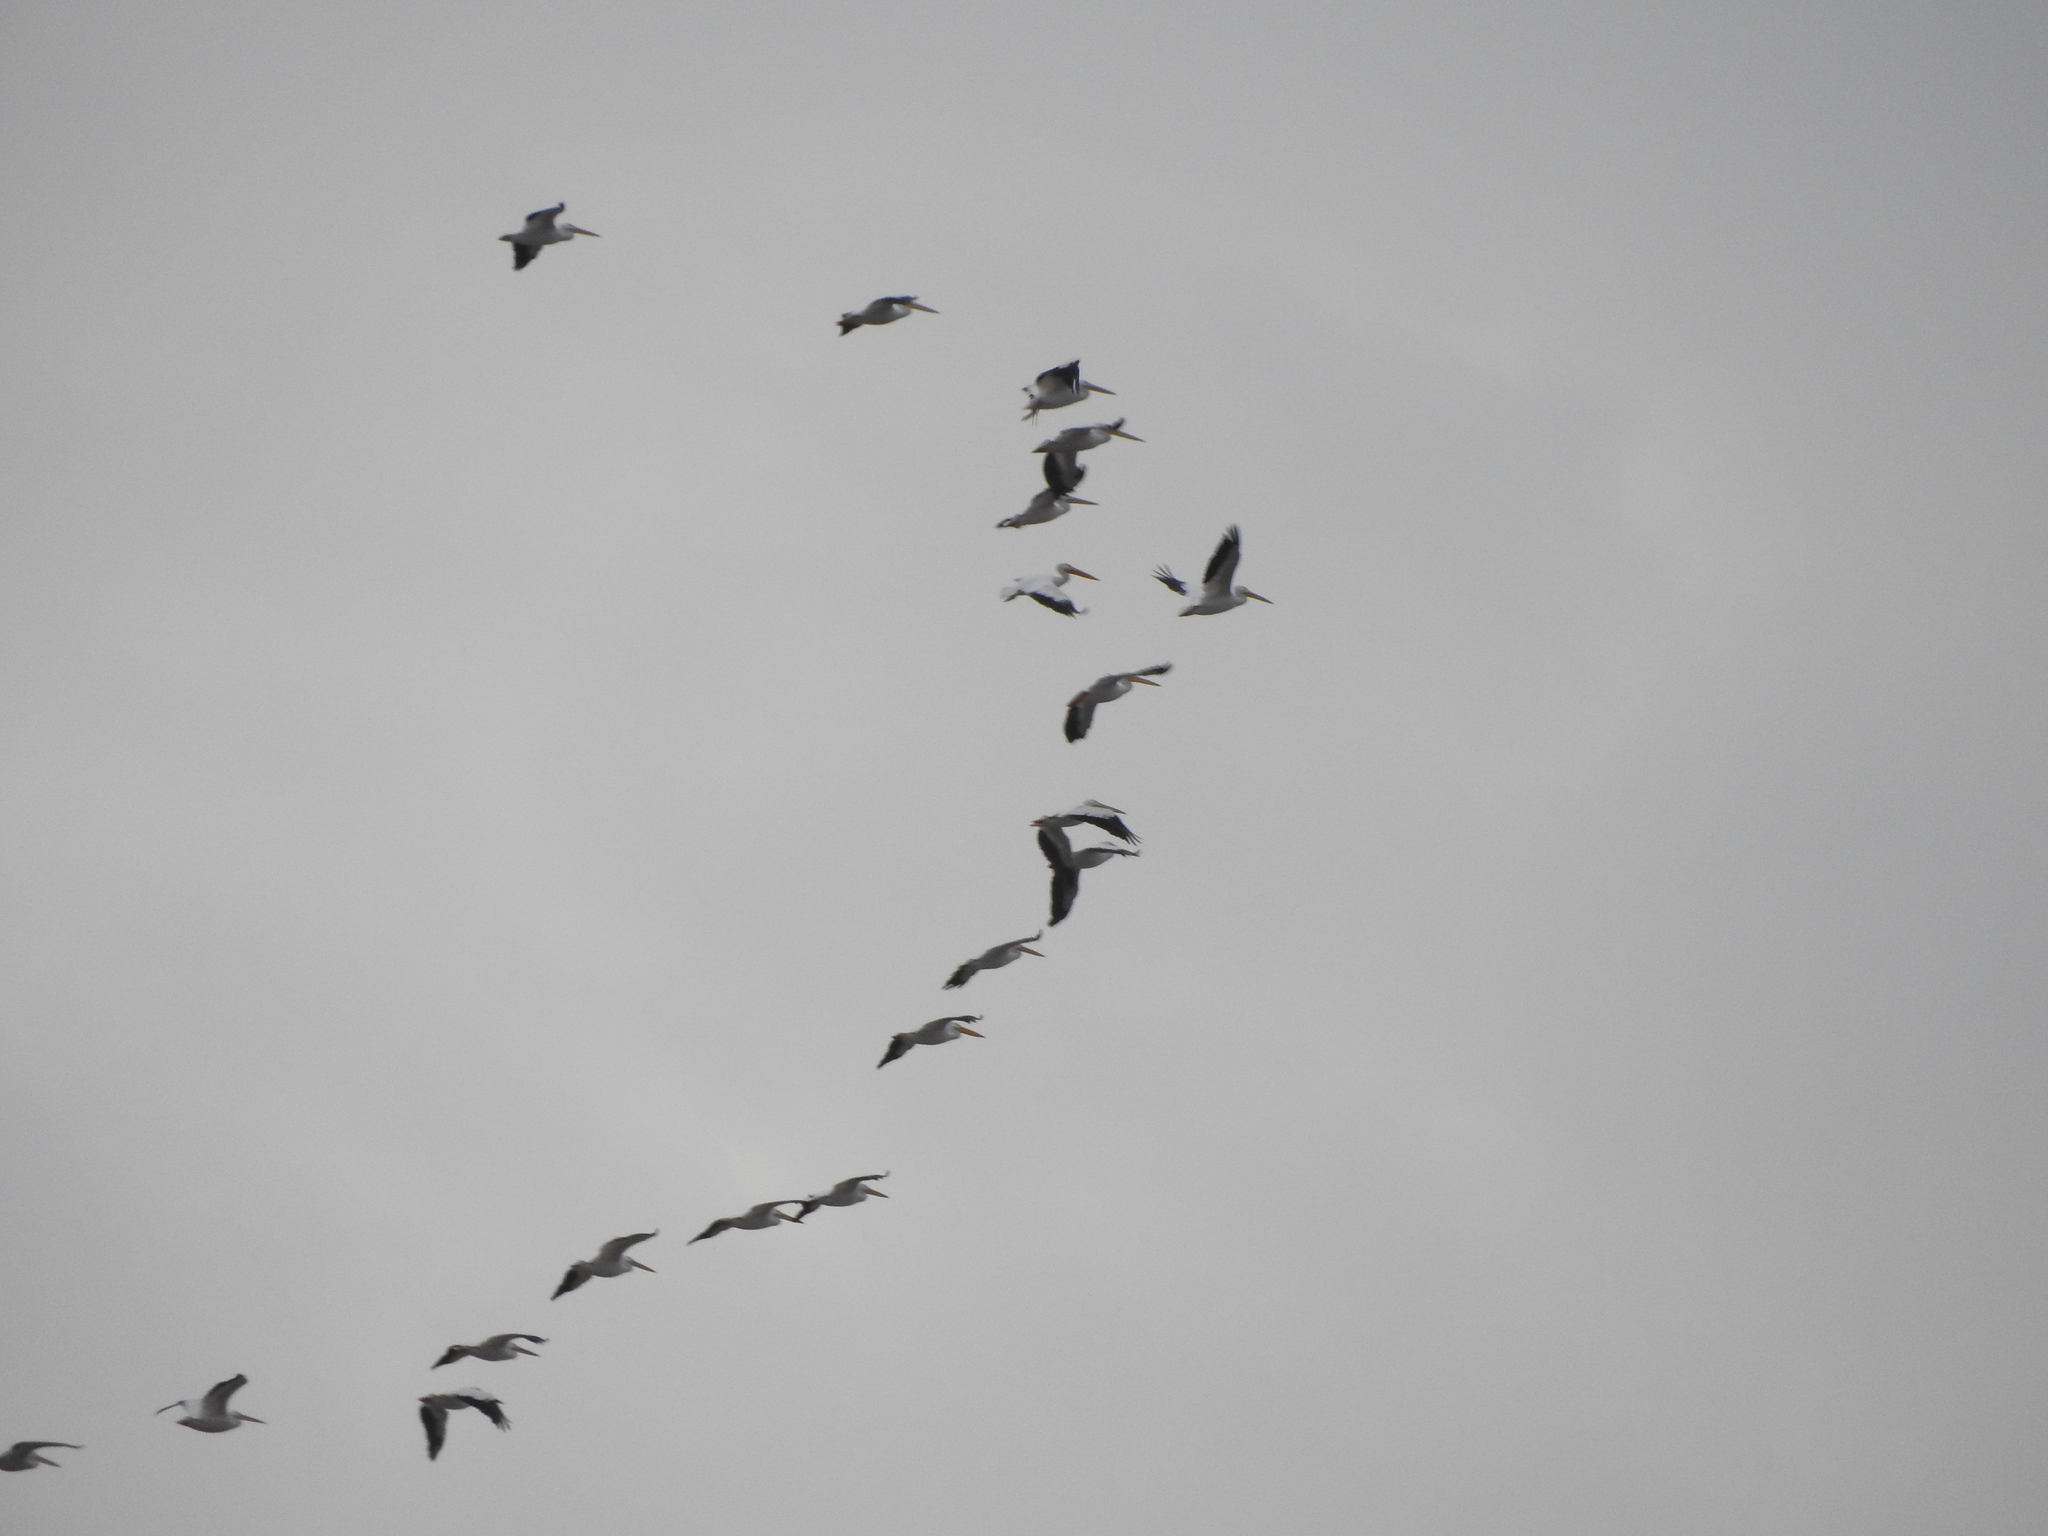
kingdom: Animalia
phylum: Chordata
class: Aves
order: Pelecaniformes
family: Pelecanidae
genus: Pelecanus
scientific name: Pelecanus erythrorhynchos
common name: American white pelican
